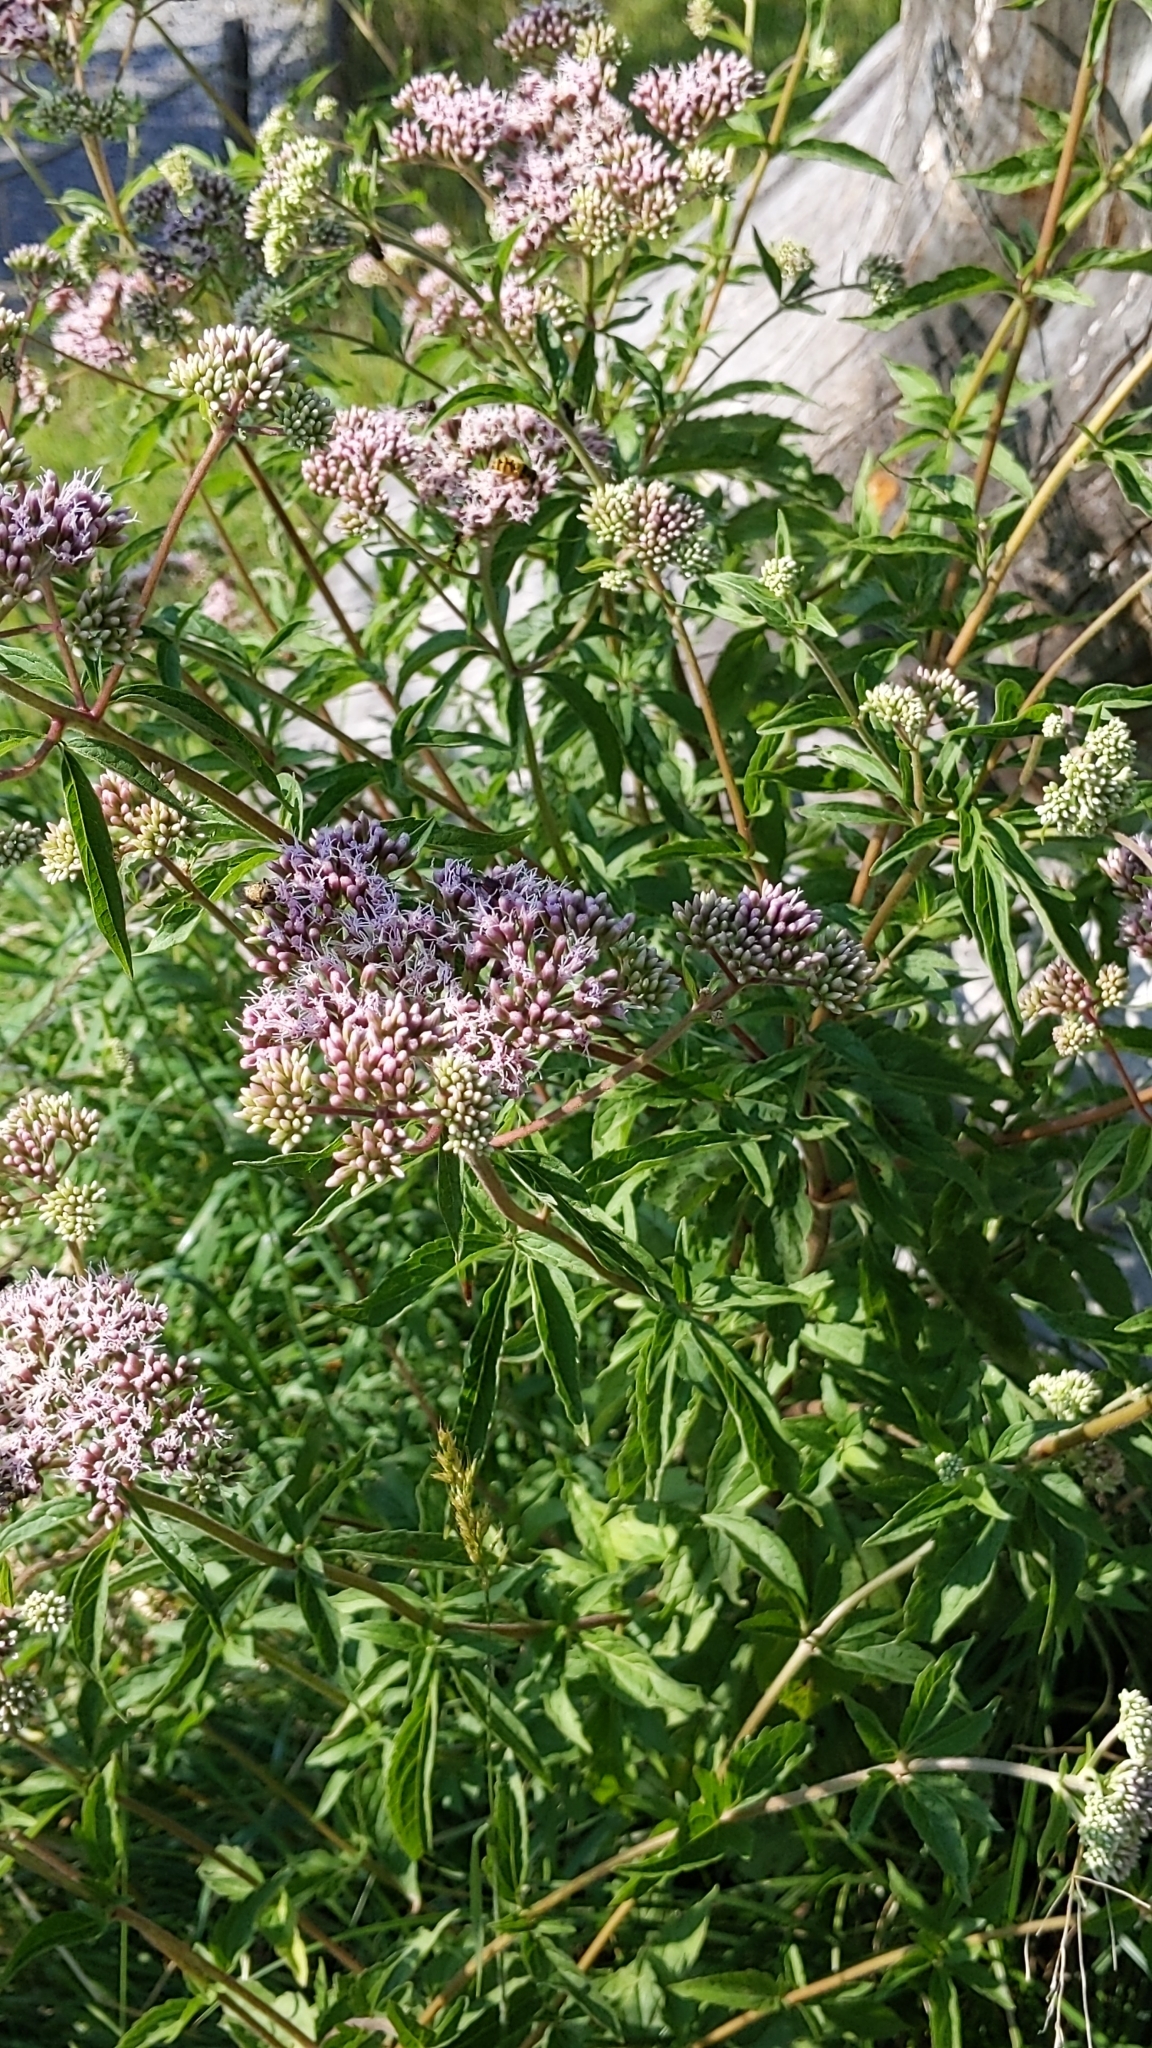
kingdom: Plantae
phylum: Tracheophyta
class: Magnoliopsida
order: Asterales
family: Asteraceae
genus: Eupatorium
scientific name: Eupatorium cannabinum
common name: Hemp-agrimony
